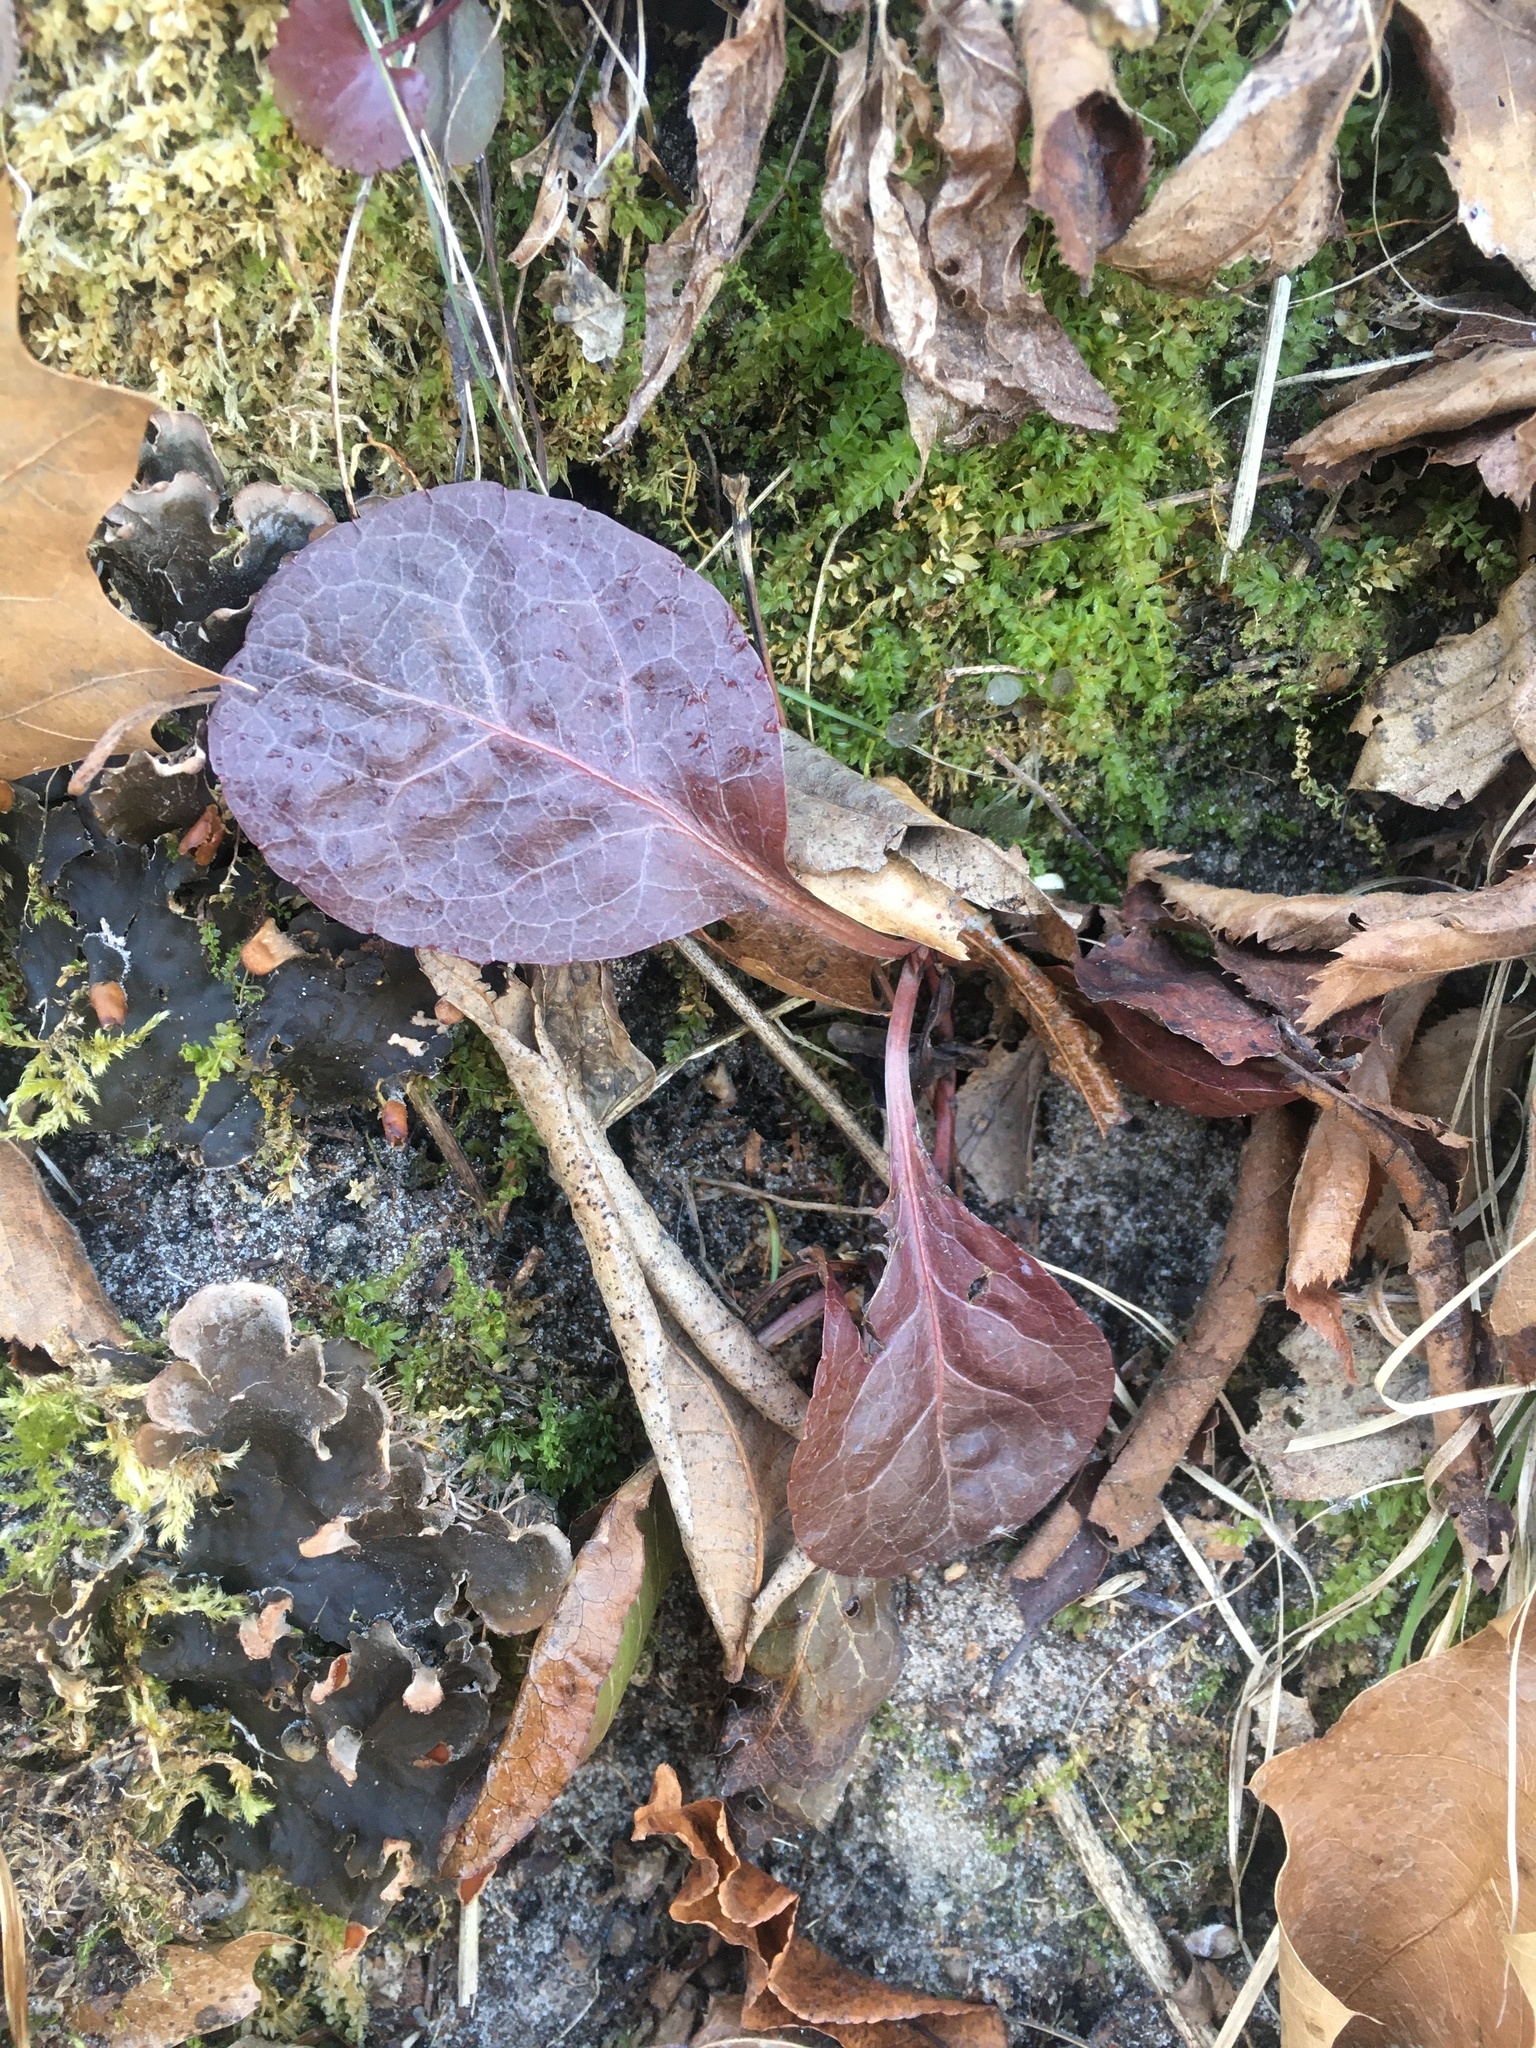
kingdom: Plantae
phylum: Tracheophyta
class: Magnoliopsida
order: Ericales
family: Ericaceae
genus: Pyrola
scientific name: Pyrola elliptica
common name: Shinleaf
